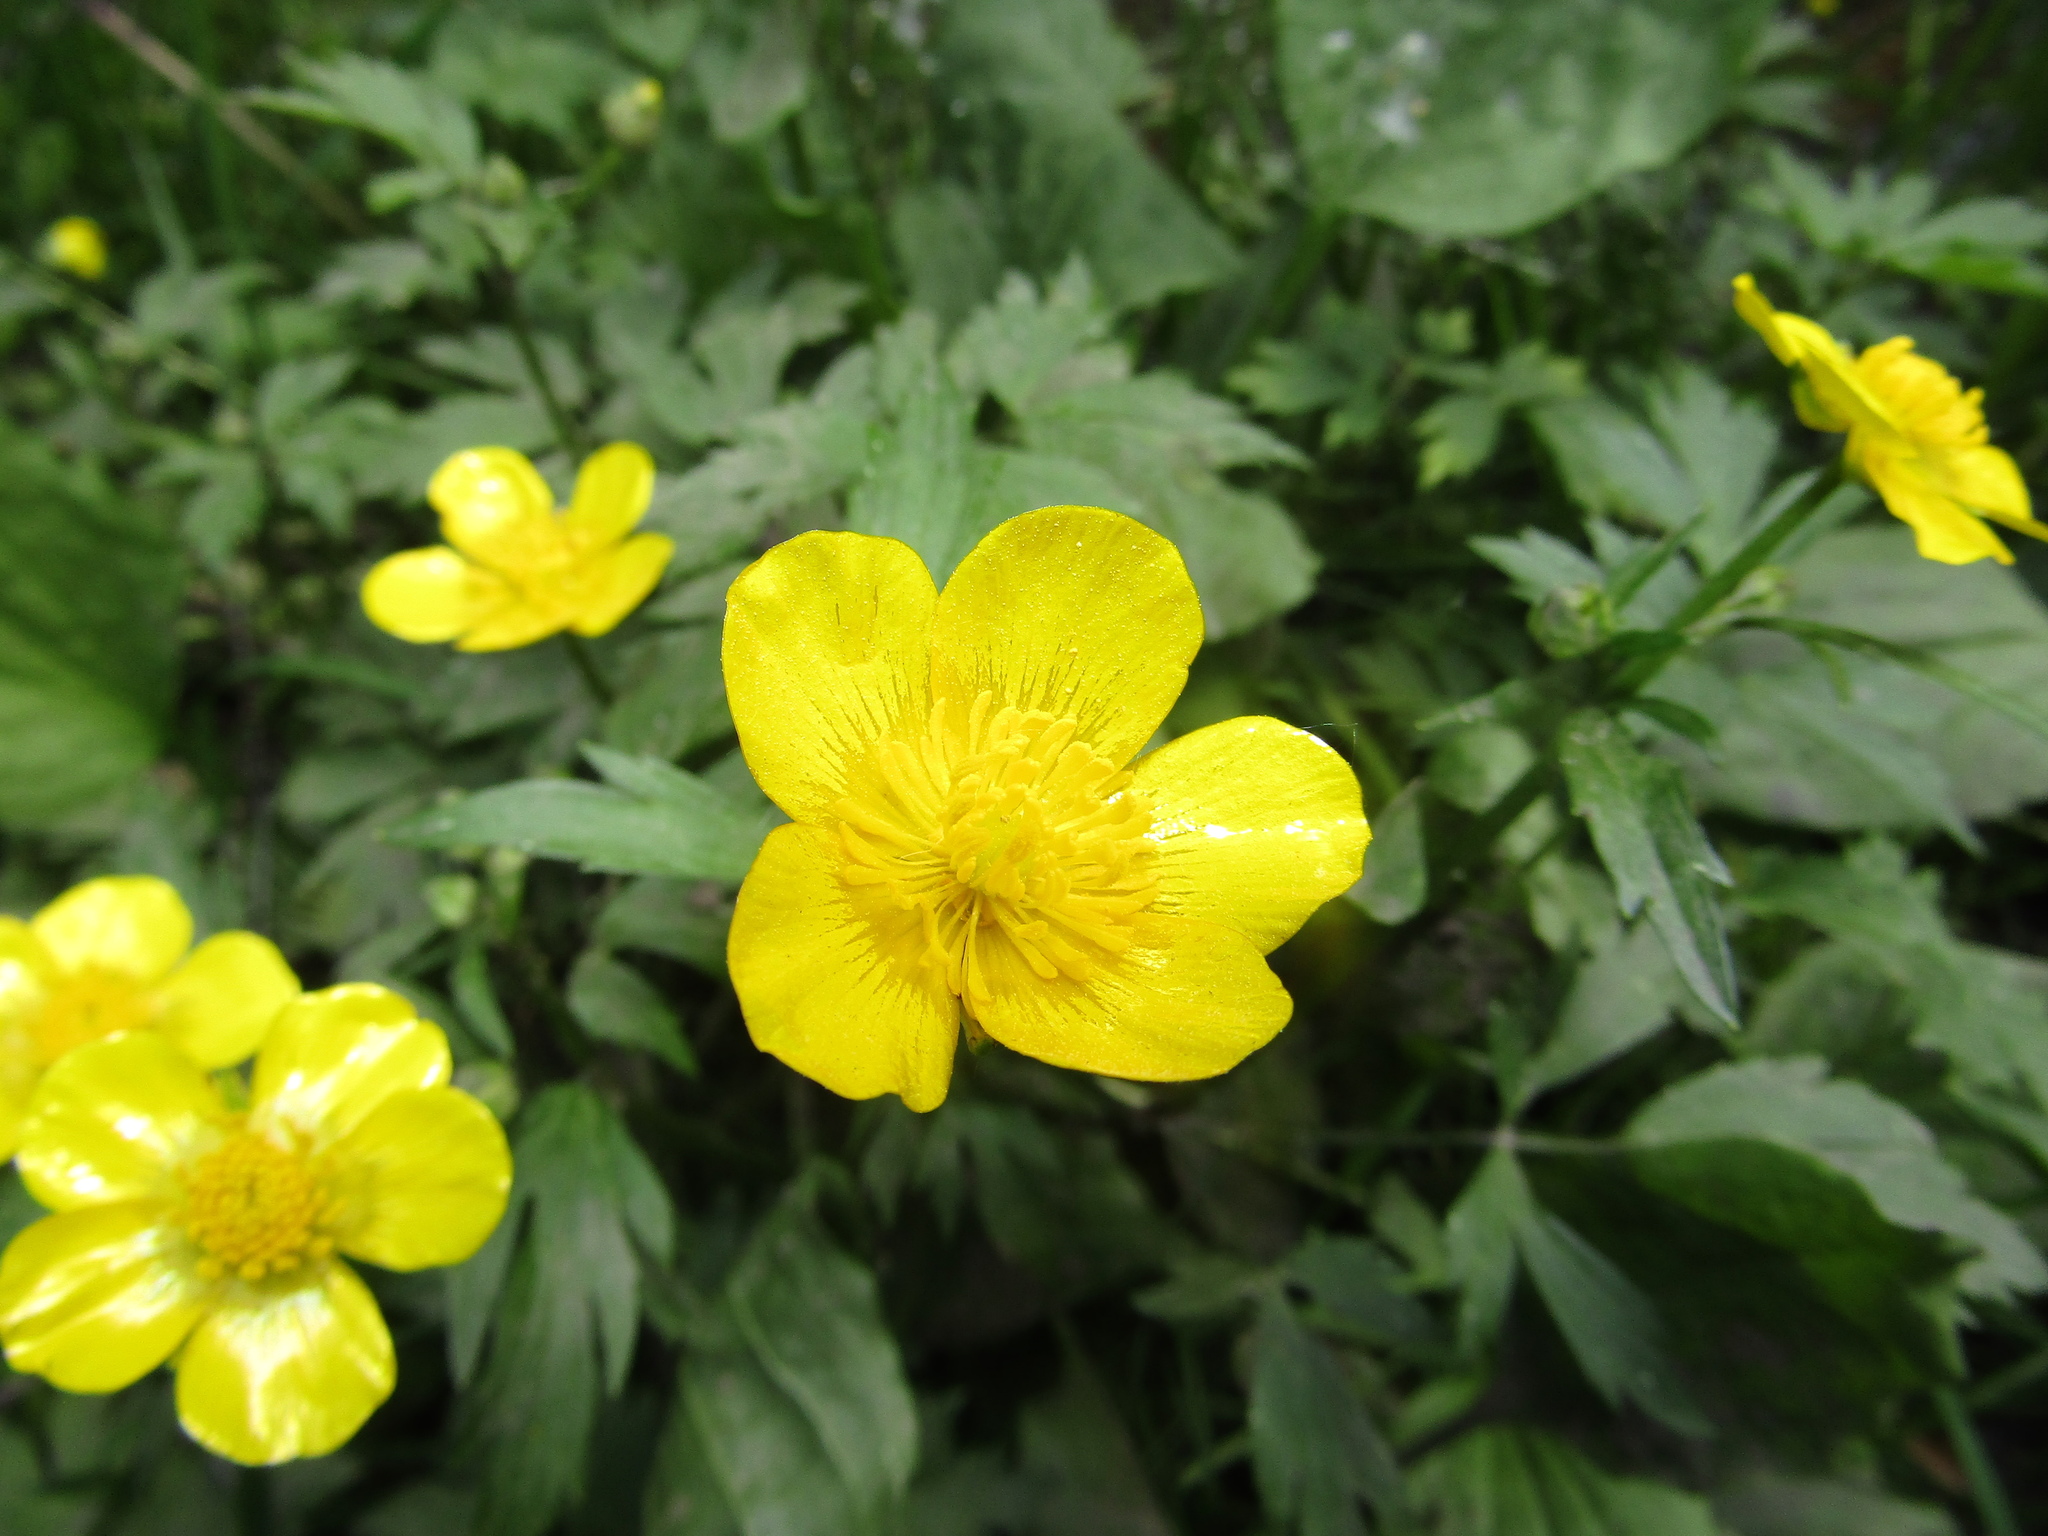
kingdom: Plantae
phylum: Tracheophyta
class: Magnoliopsida
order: Ranunculales
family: Ranunculaceae
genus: Ranunculus
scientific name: Ranunculus repens
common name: Creeping buttercup
